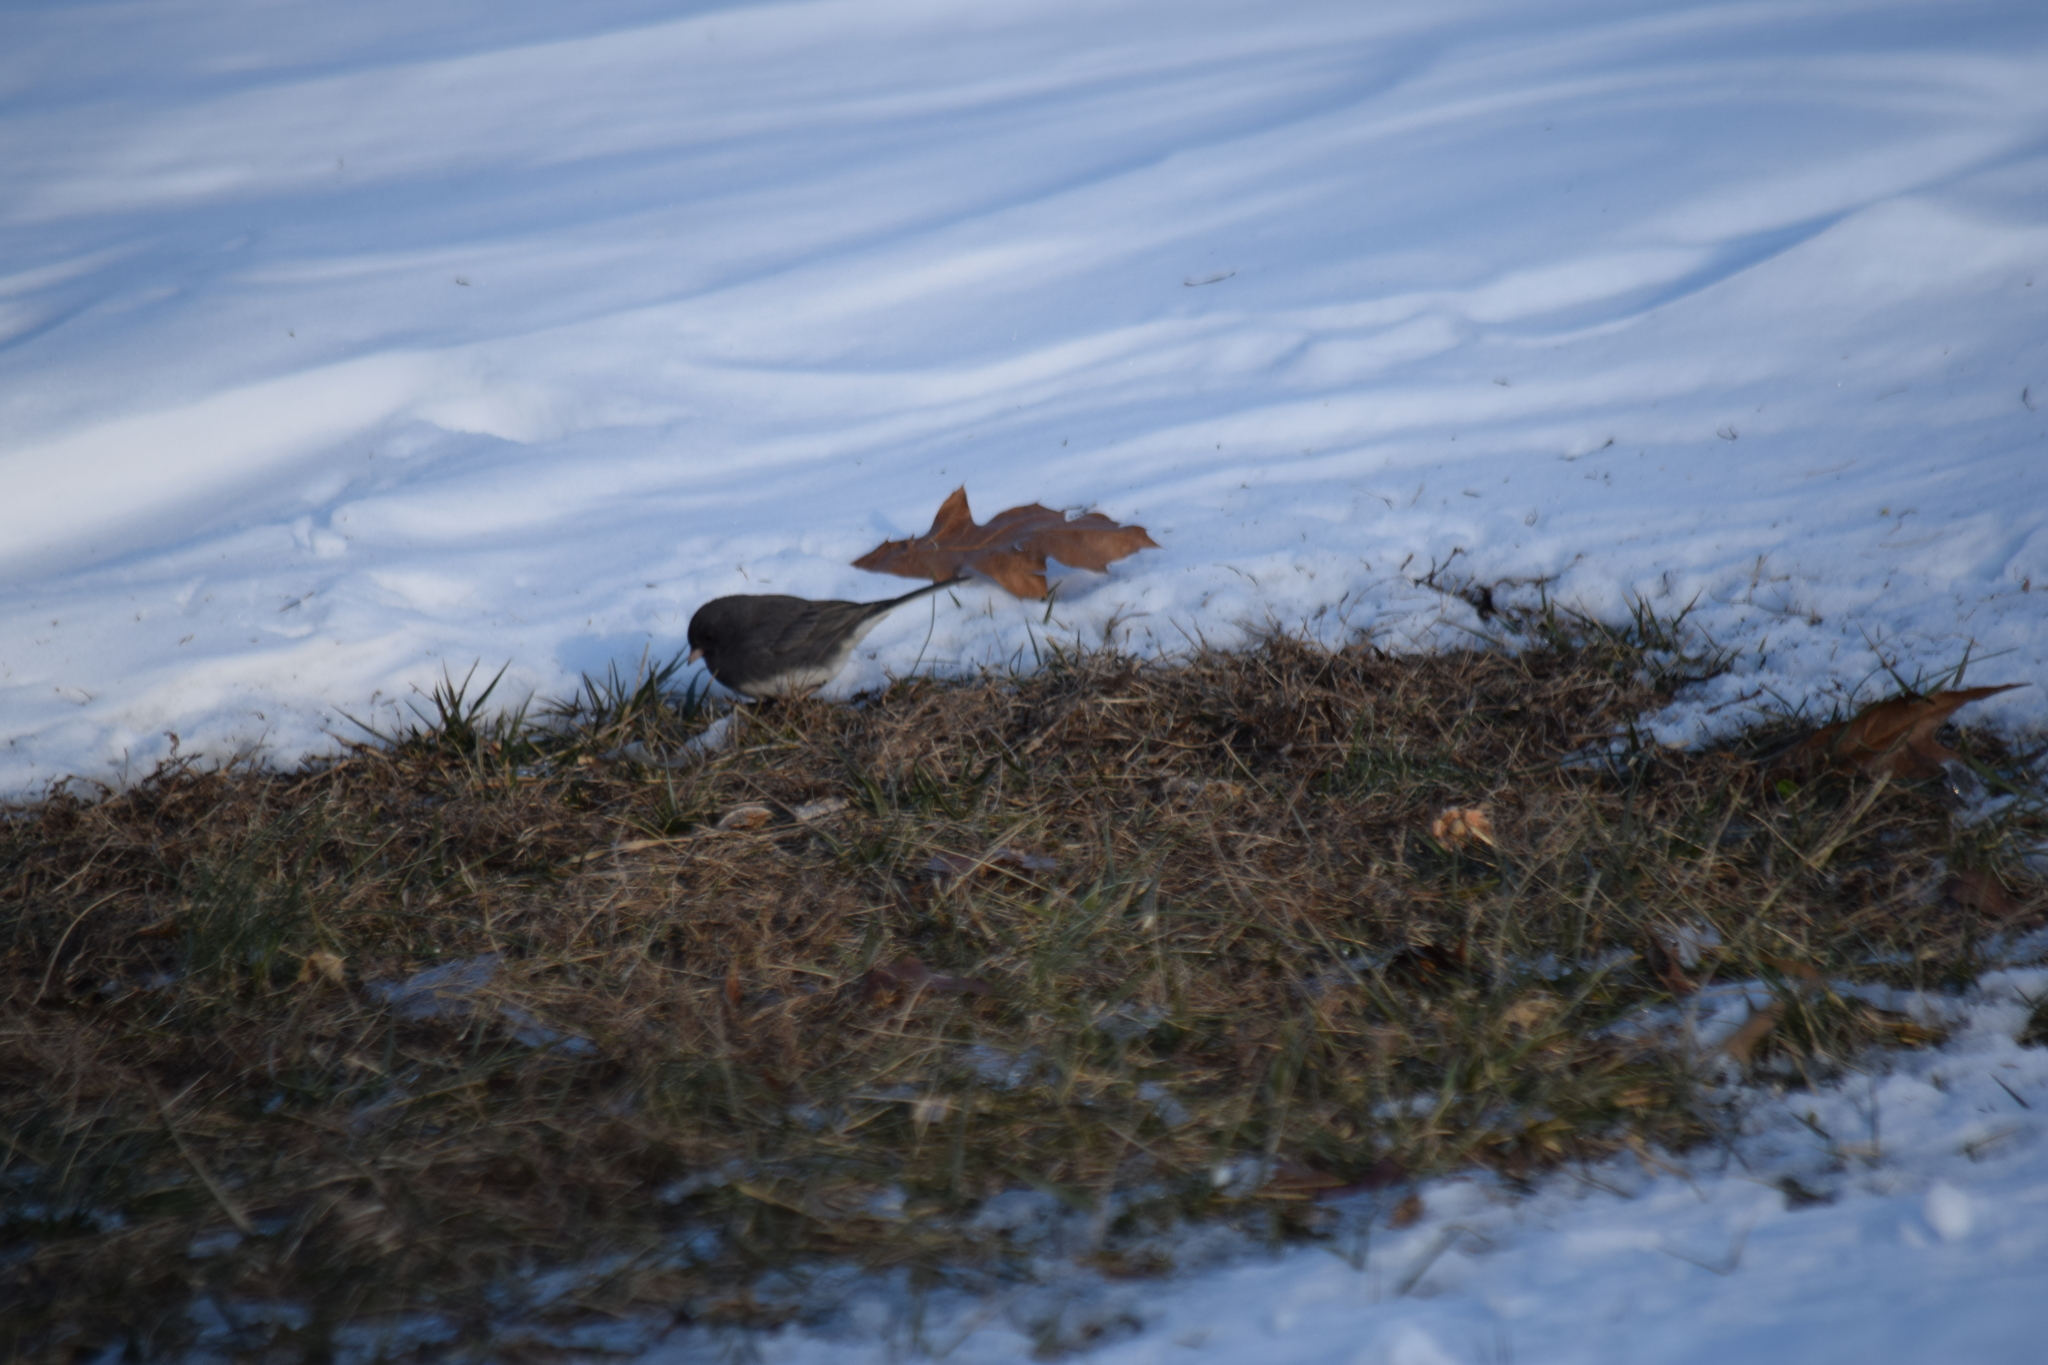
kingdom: Animalia
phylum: Chordata
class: Aves
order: Passeriformes
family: Passerellidae
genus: Junco
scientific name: Junco hyemalis
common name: Dark-eyed junco
